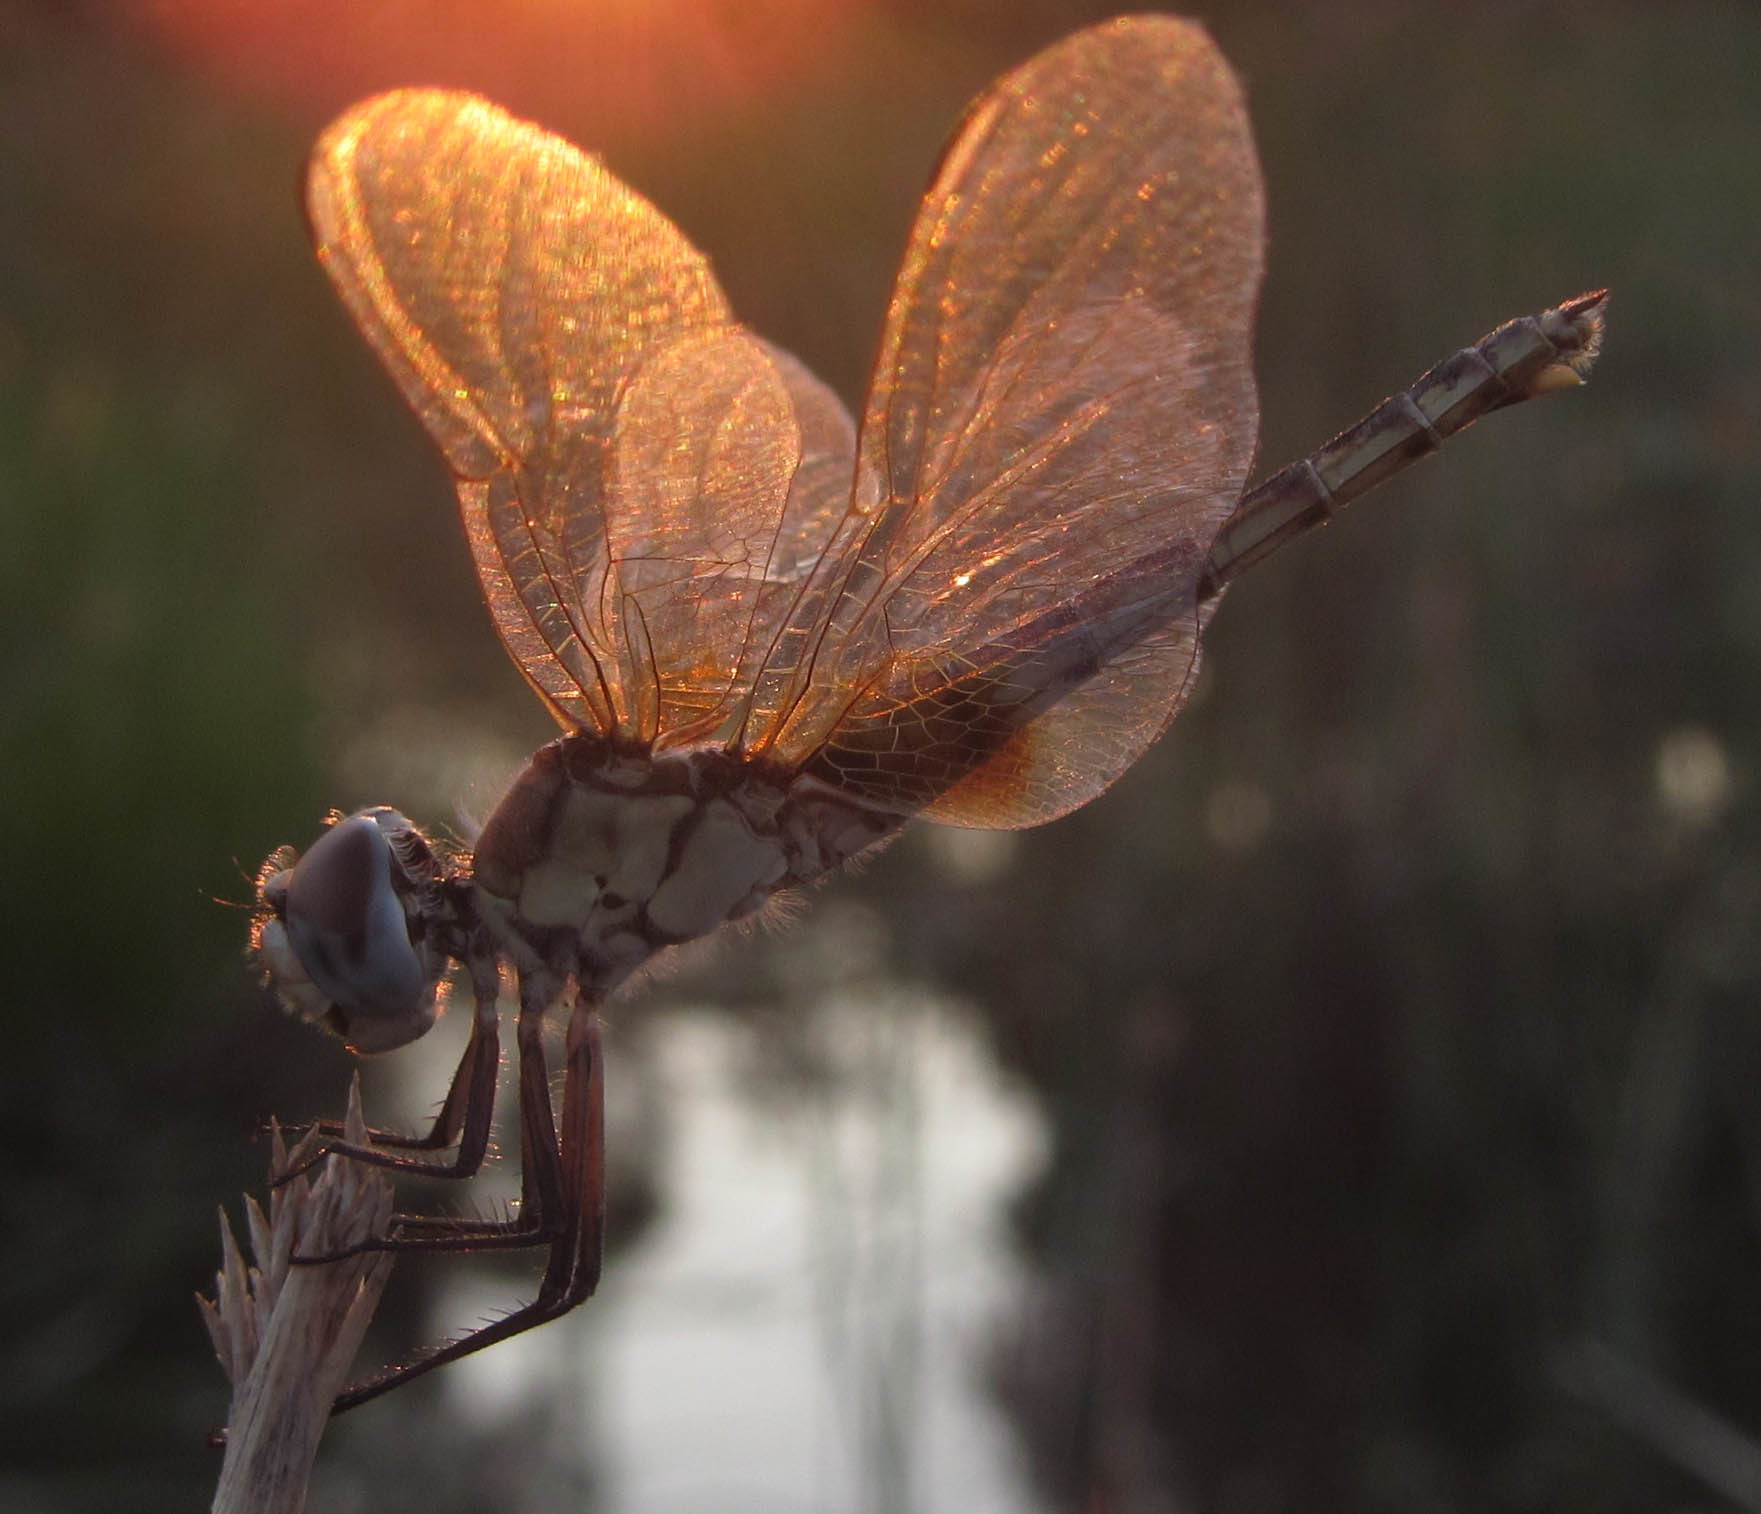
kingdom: Animalia
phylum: Arthropoda
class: Insecta
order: Odonata
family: Libellulidae
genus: Urothemis
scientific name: Urothemis edwardsii
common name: Blue basker
